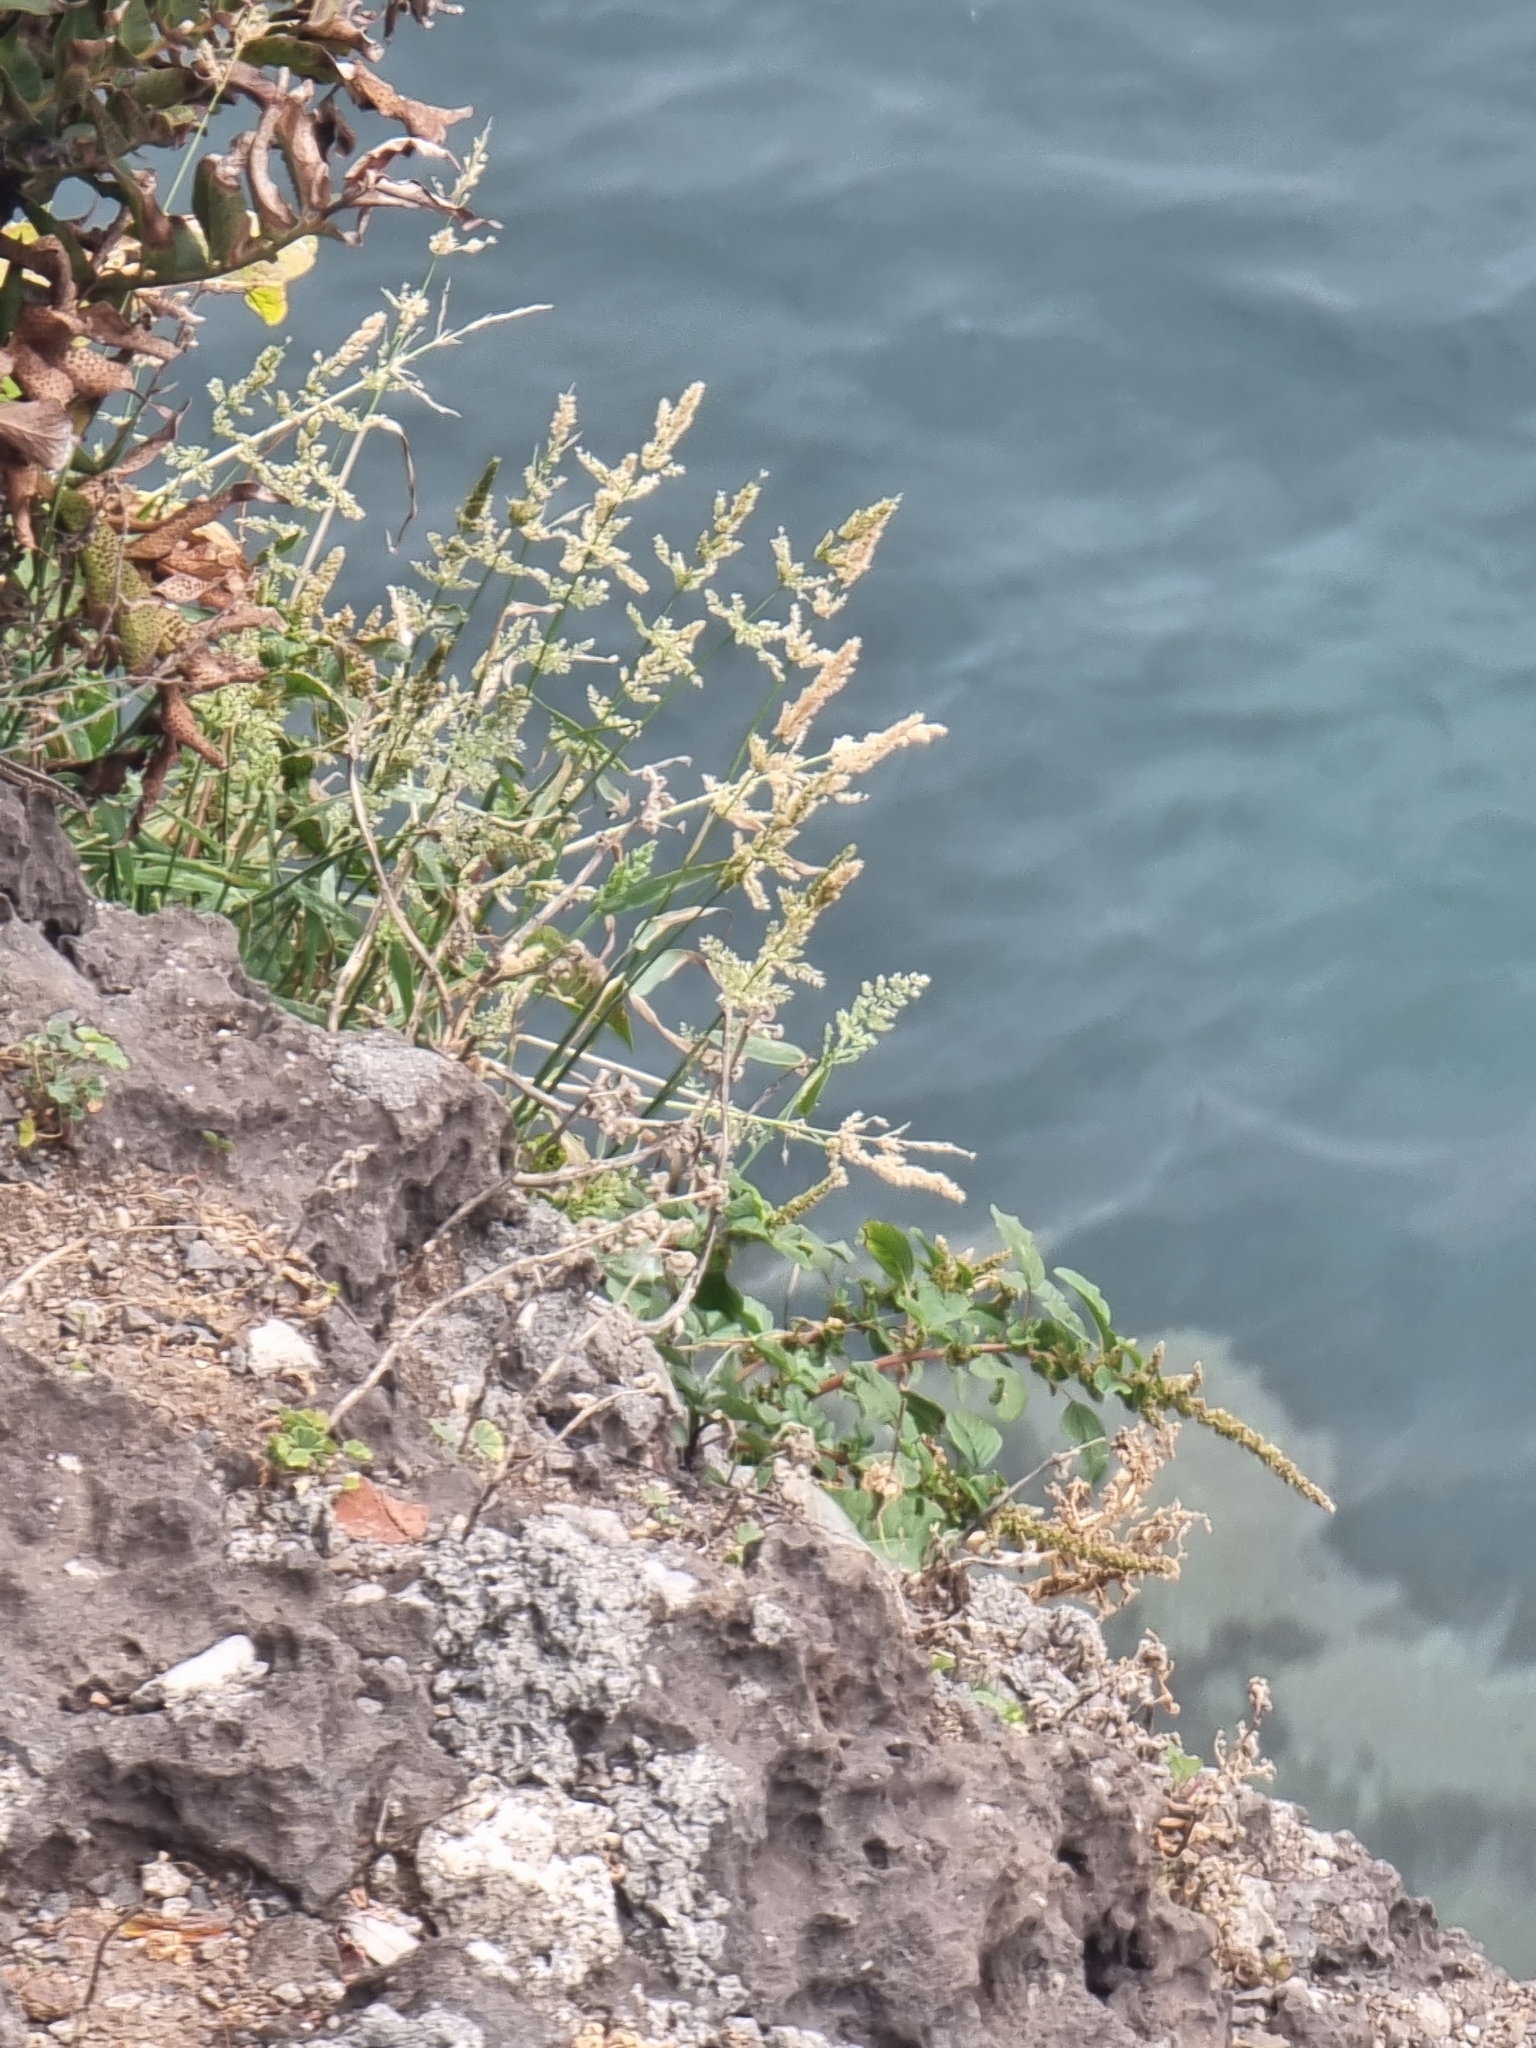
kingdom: Plantae
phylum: Tracheophyta
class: Liliopsida
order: Poales
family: Poaceae
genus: Polypogon
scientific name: Polypogon viridis
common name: Water bent
